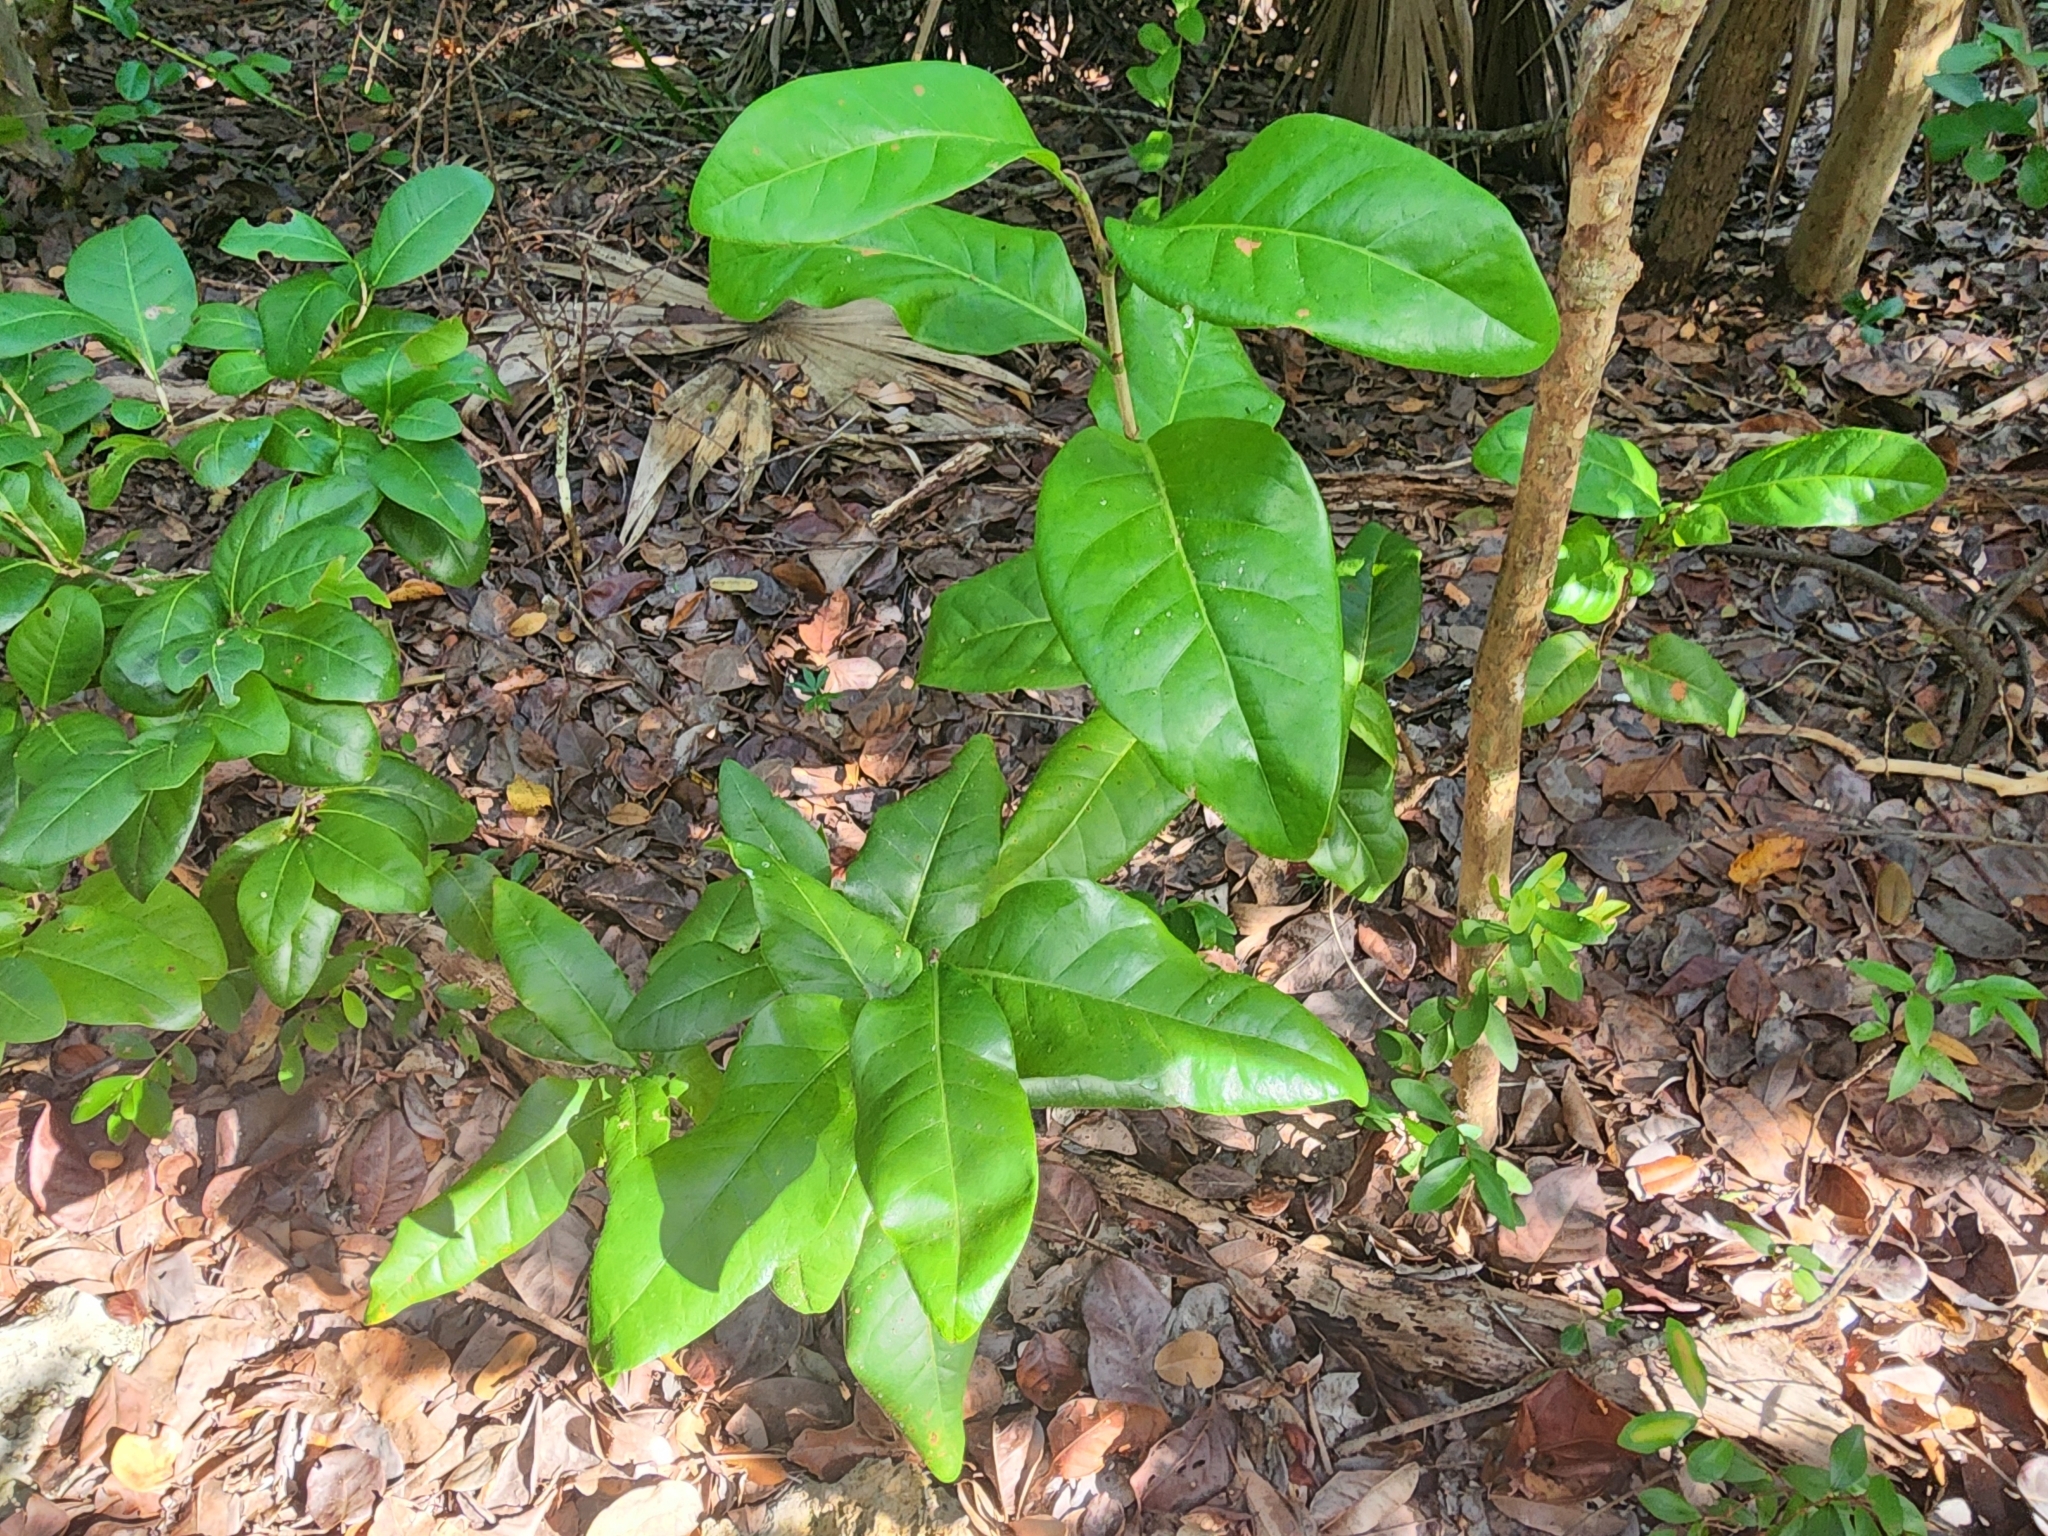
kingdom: Plantae
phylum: Tracheophyta
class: Magnoliopsida
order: Caryophyllales
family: Polygonaceae
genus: Coccoloba
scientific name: Coccoloba diversifolia
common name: Pigeon-plum
